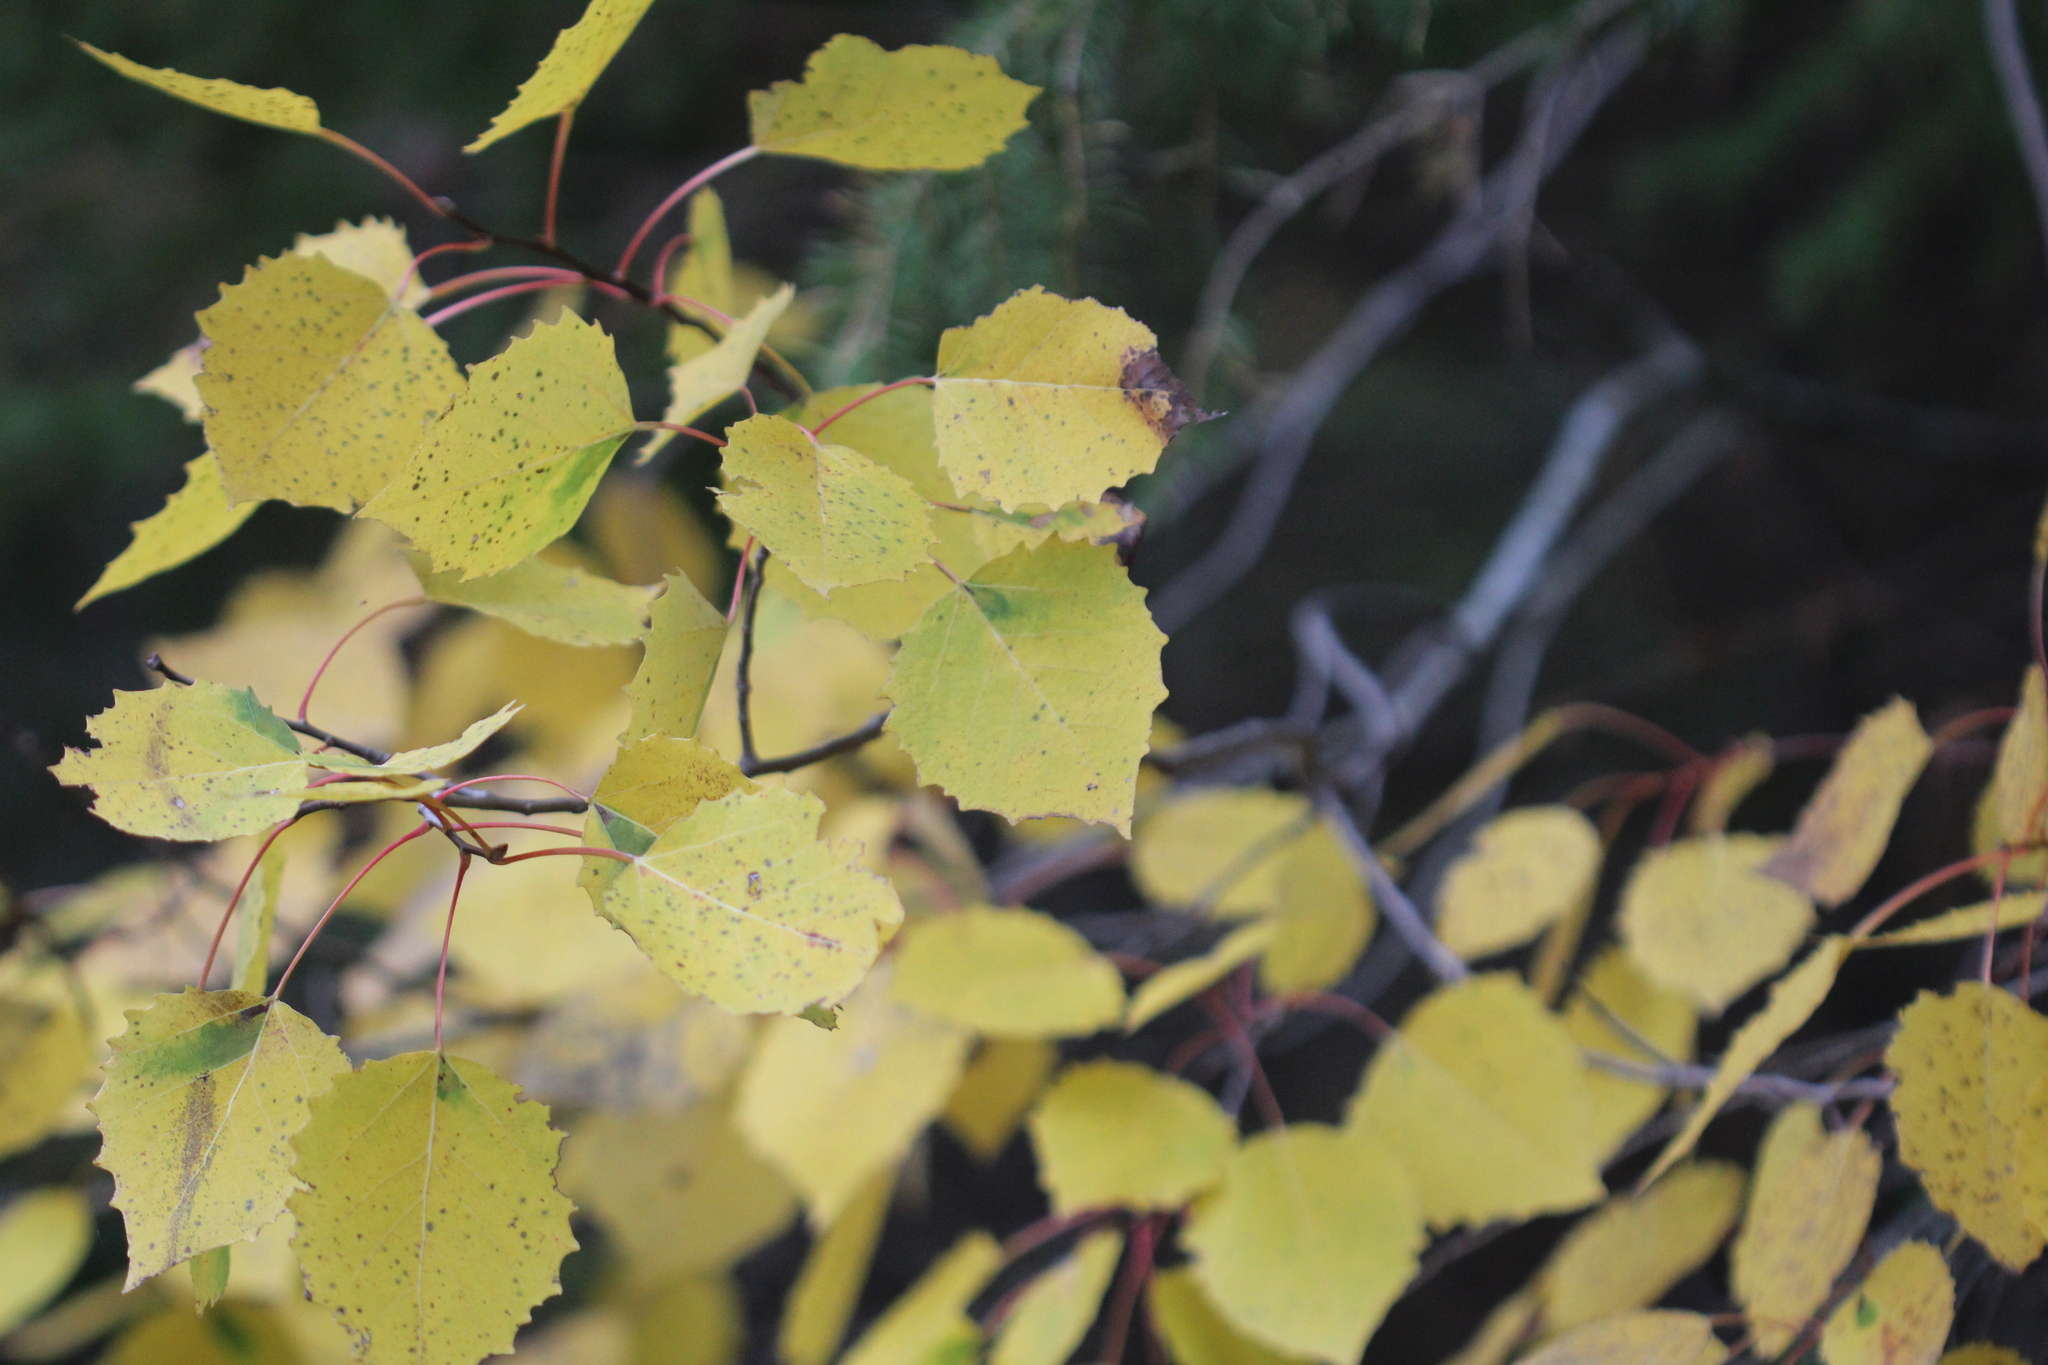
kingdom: Plantae
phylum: Tracheophyta
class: Magnoliopsida
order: Malpighiales
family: Salicaceae
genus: Populus
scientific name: Populus grandidentata
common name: Bigtooth aspen
